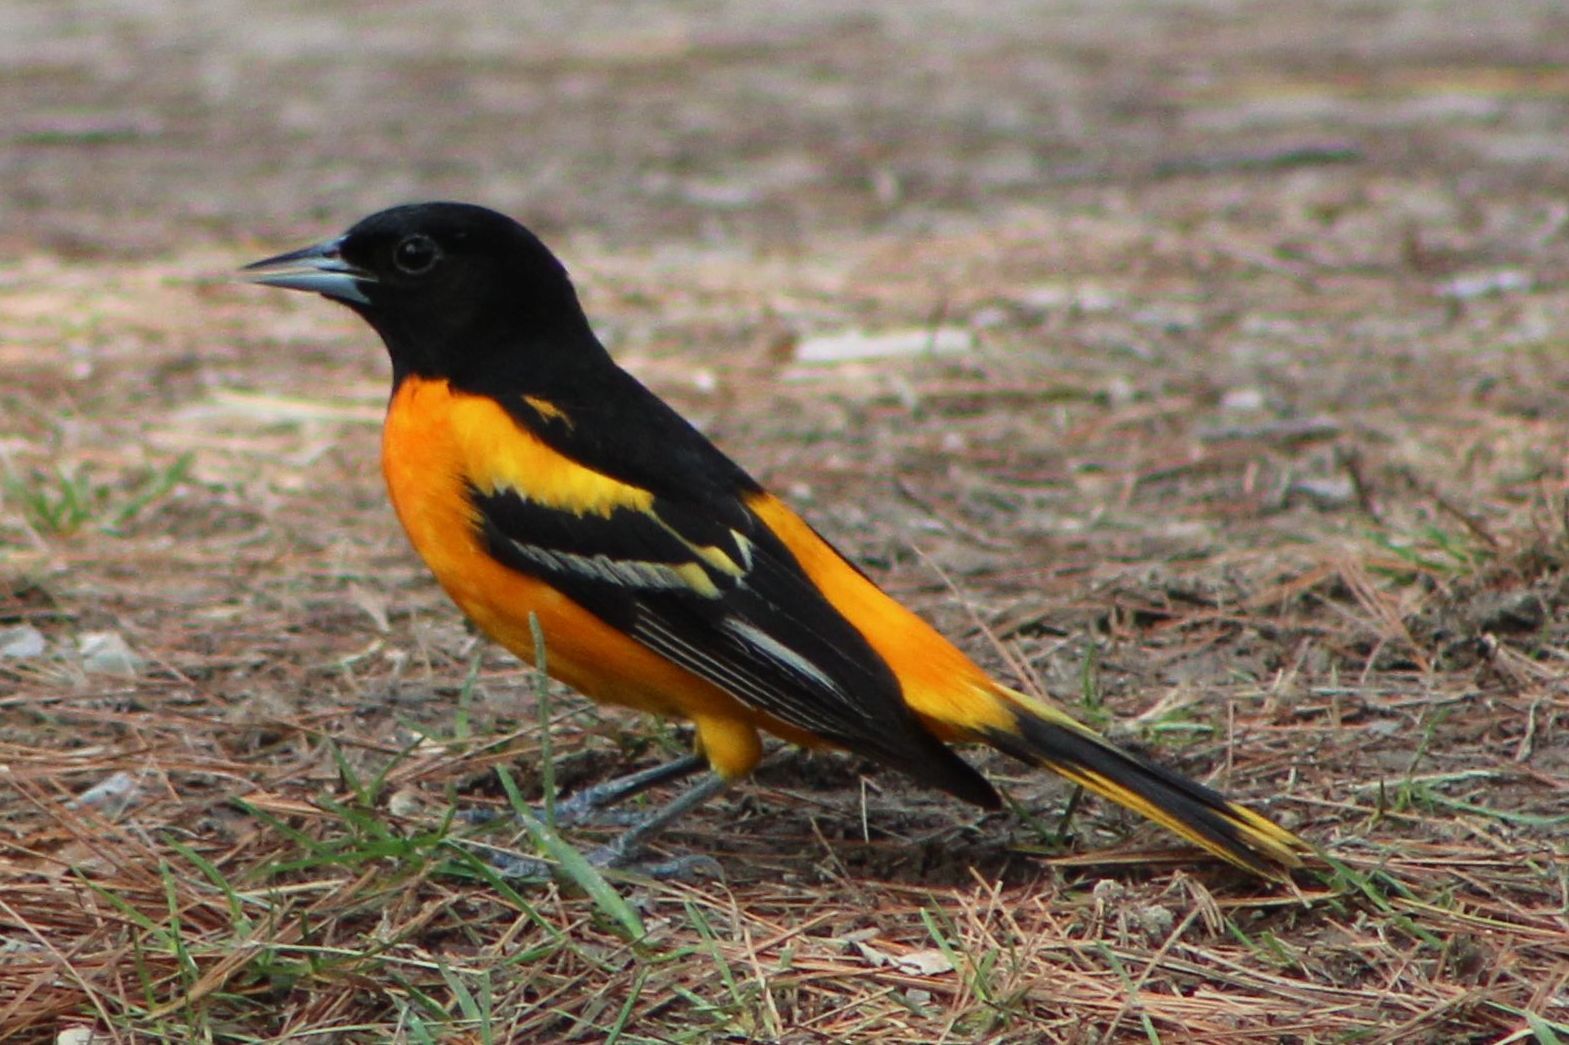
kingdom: Animalia
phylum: Chordata
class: Aves
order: Passeriformes
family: Icteridae
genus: Icterus
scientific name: Icterus galbula
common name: Baltimore oriole
